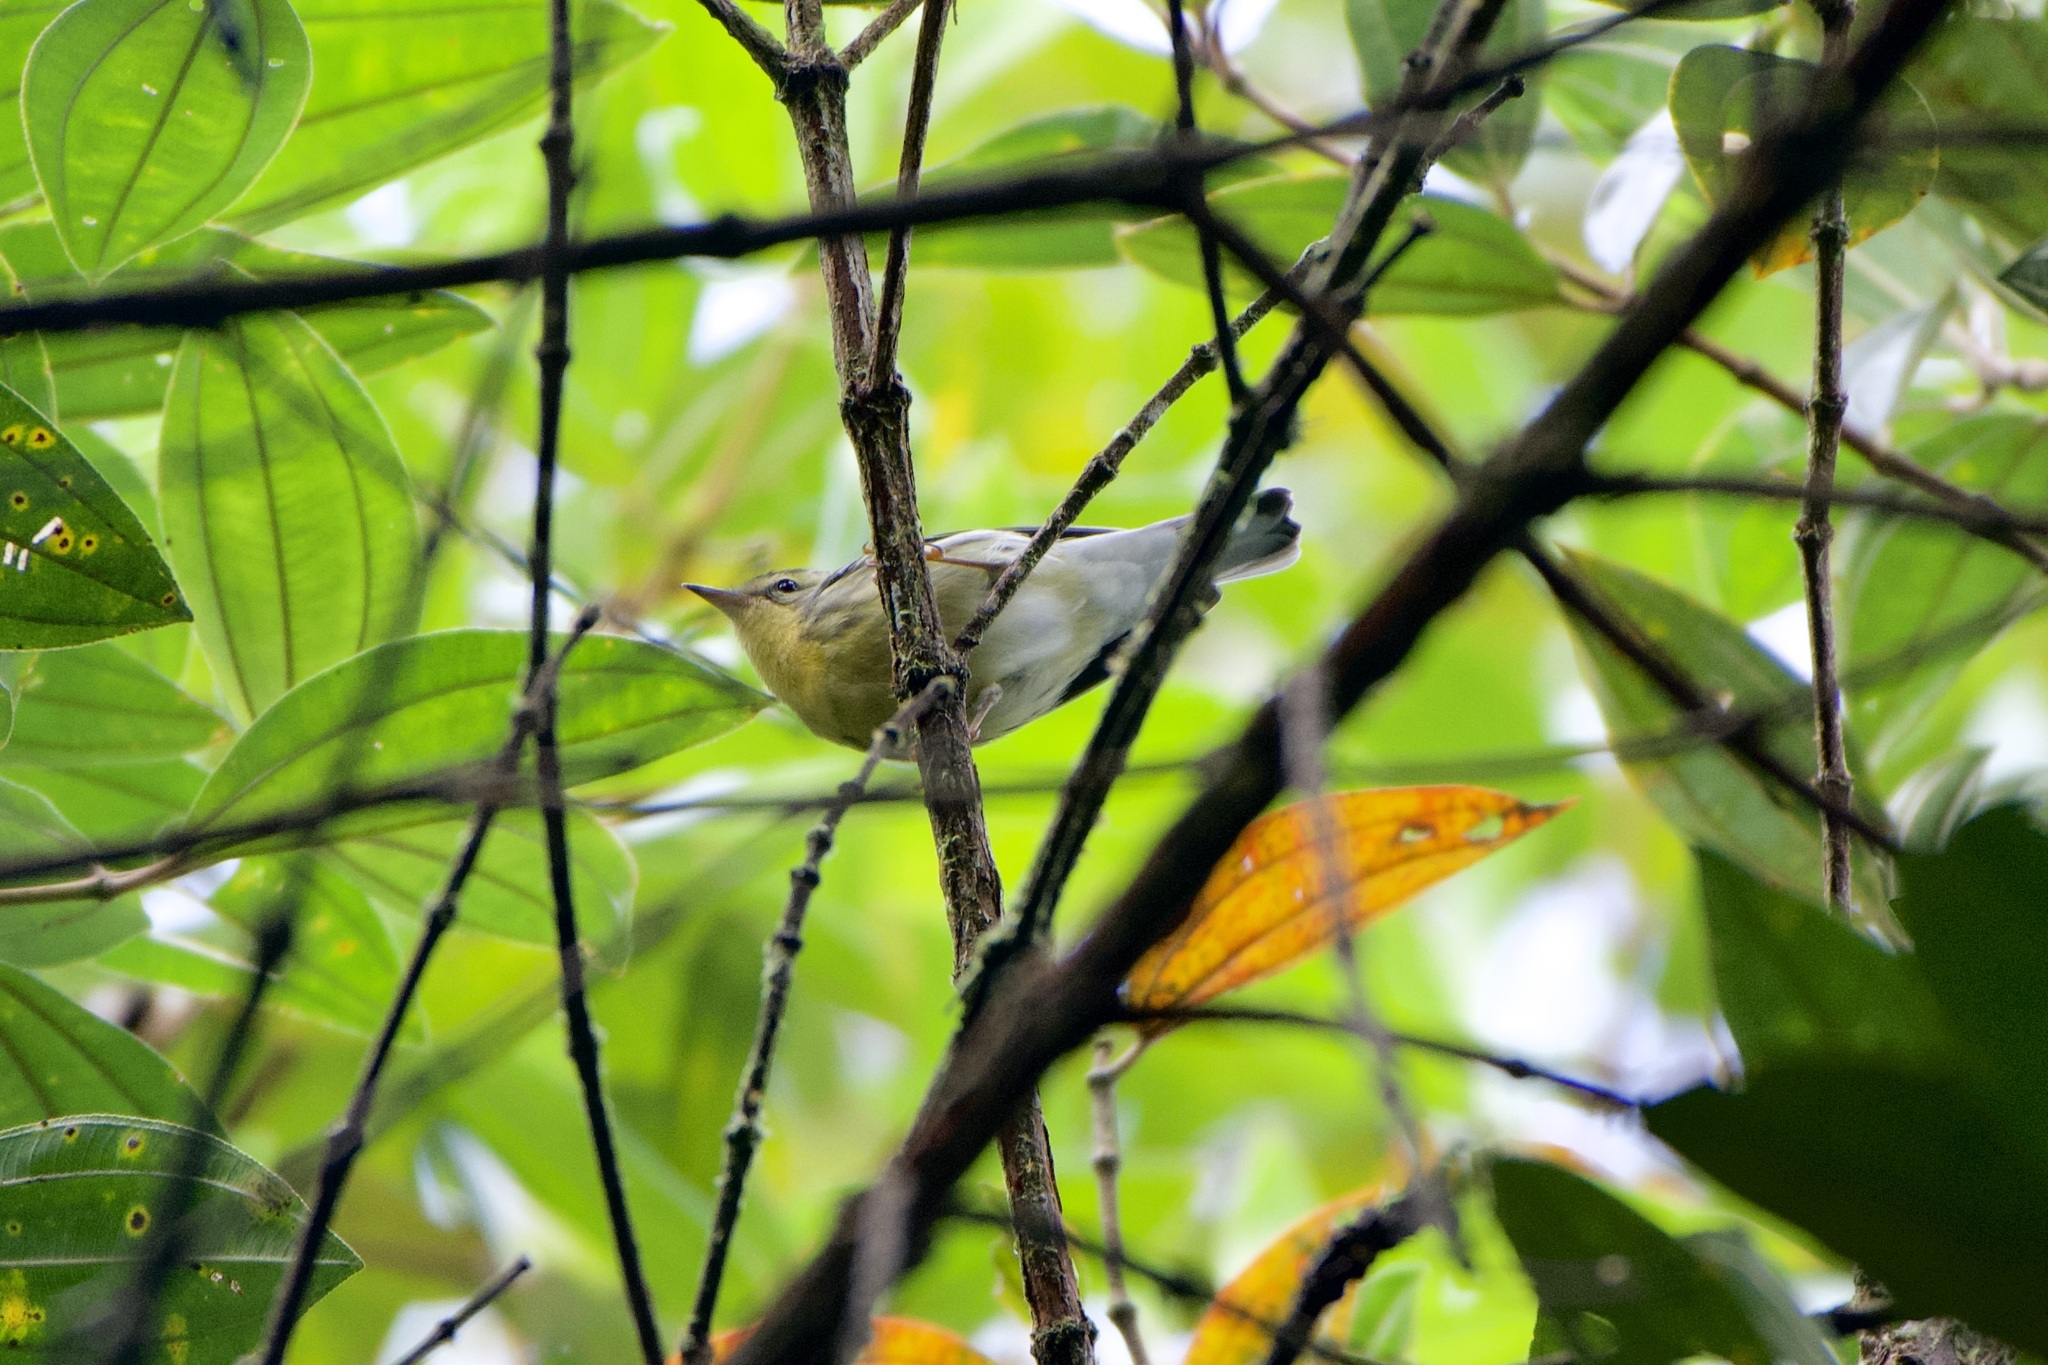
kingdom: Animalia
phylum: Chordata
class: Aves
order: Passeriformes
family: Parulidae
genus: Setophaga
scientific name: Setophaga fusca
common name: Blackburnian warbler
